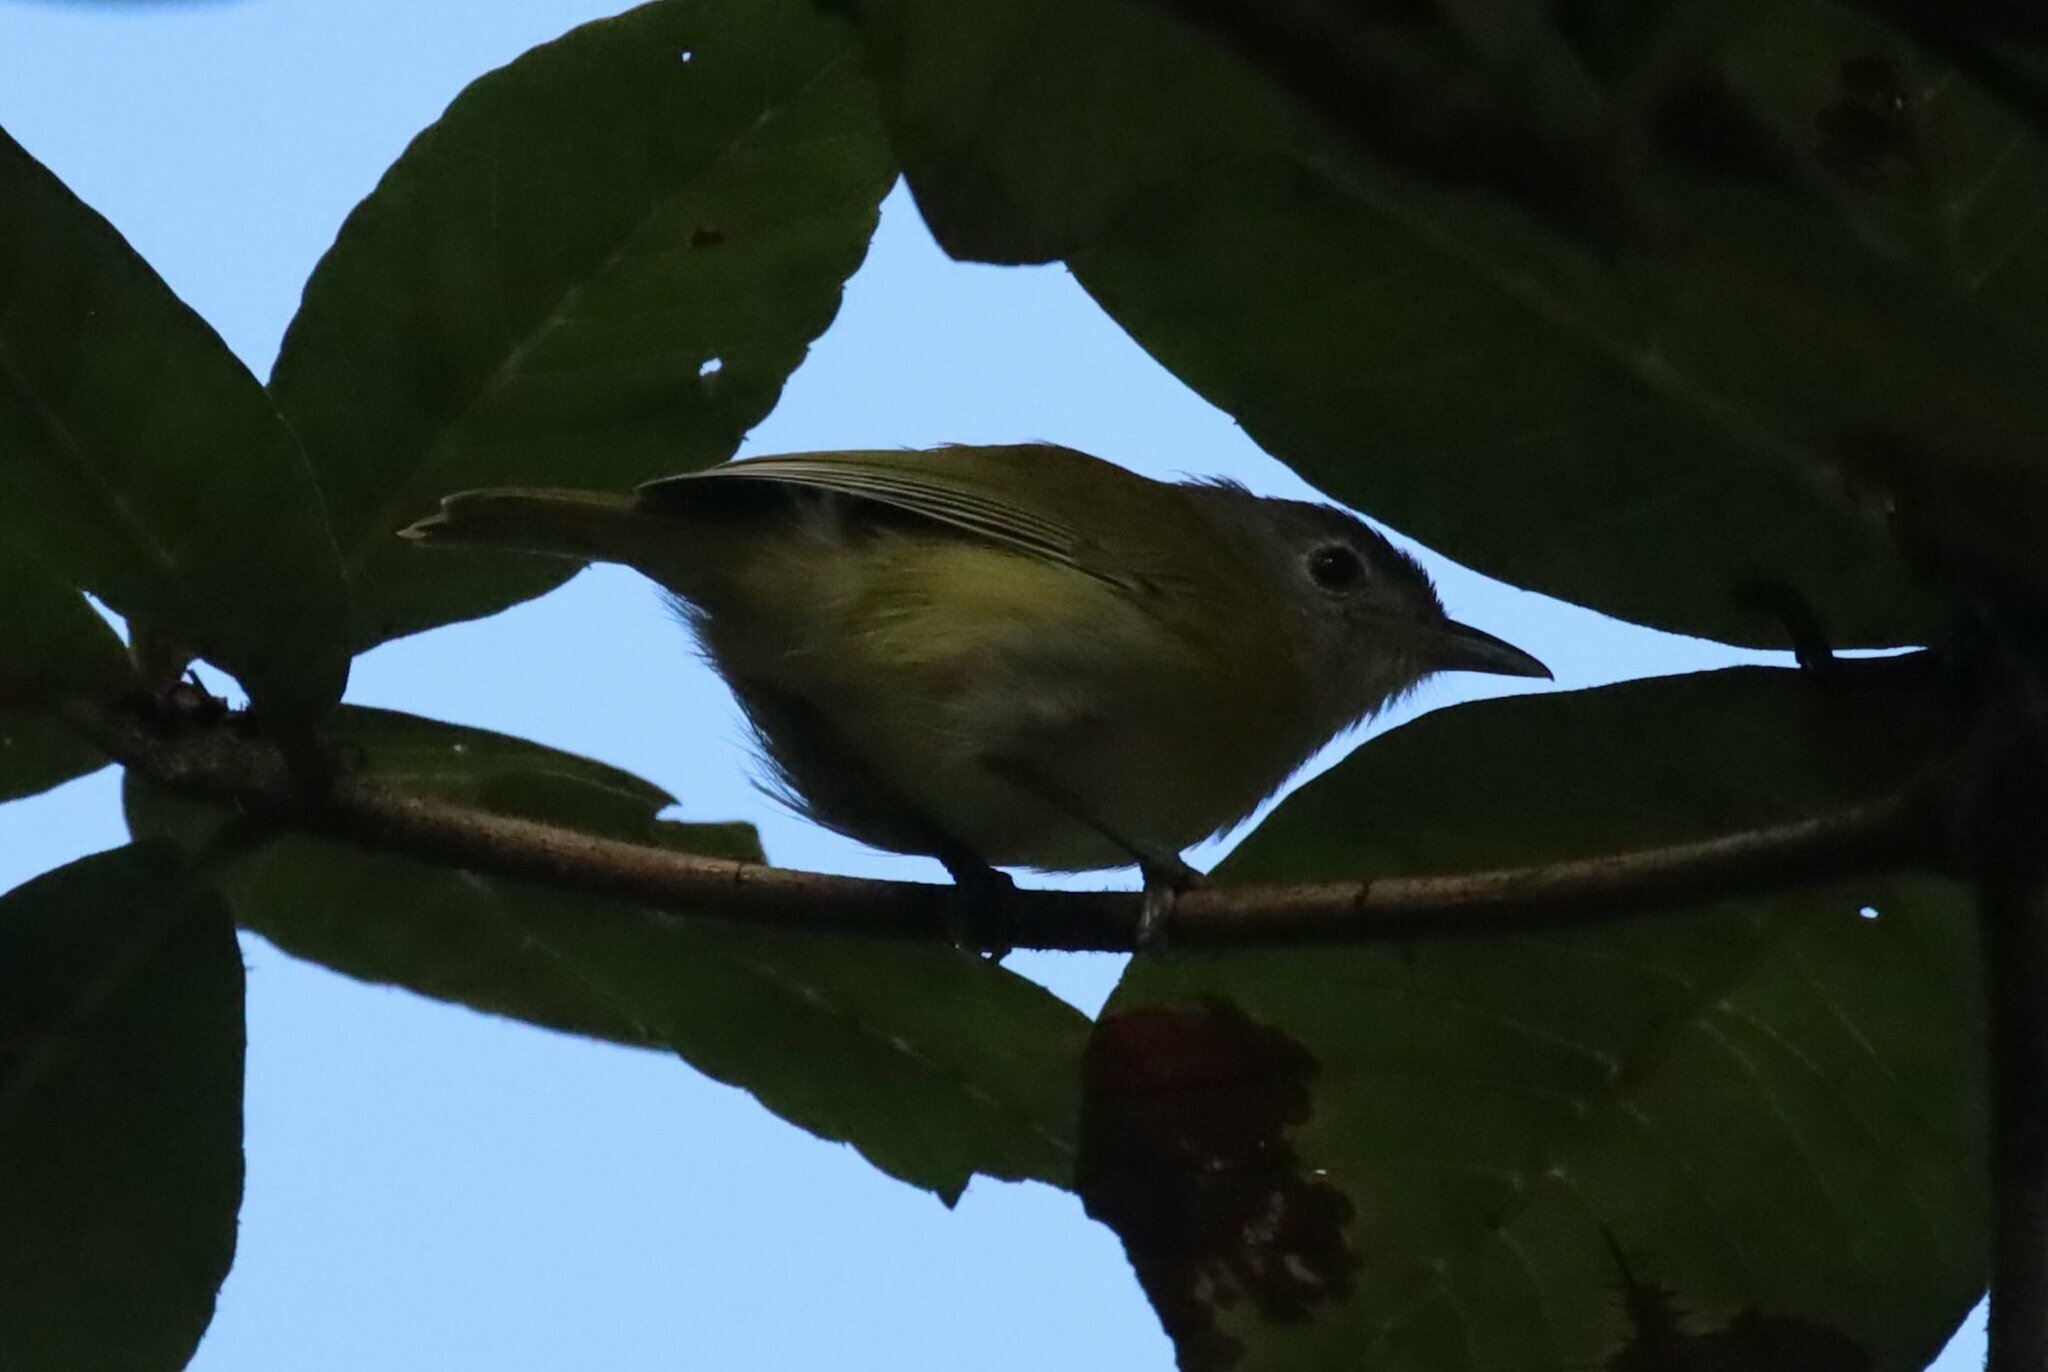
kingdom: Animalia
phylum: Chordata
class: Aves
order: Passeriformes
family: Vireonidae
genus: Hylophilus
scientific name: Hylophilus decurtatus
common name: Lesser greenlet
